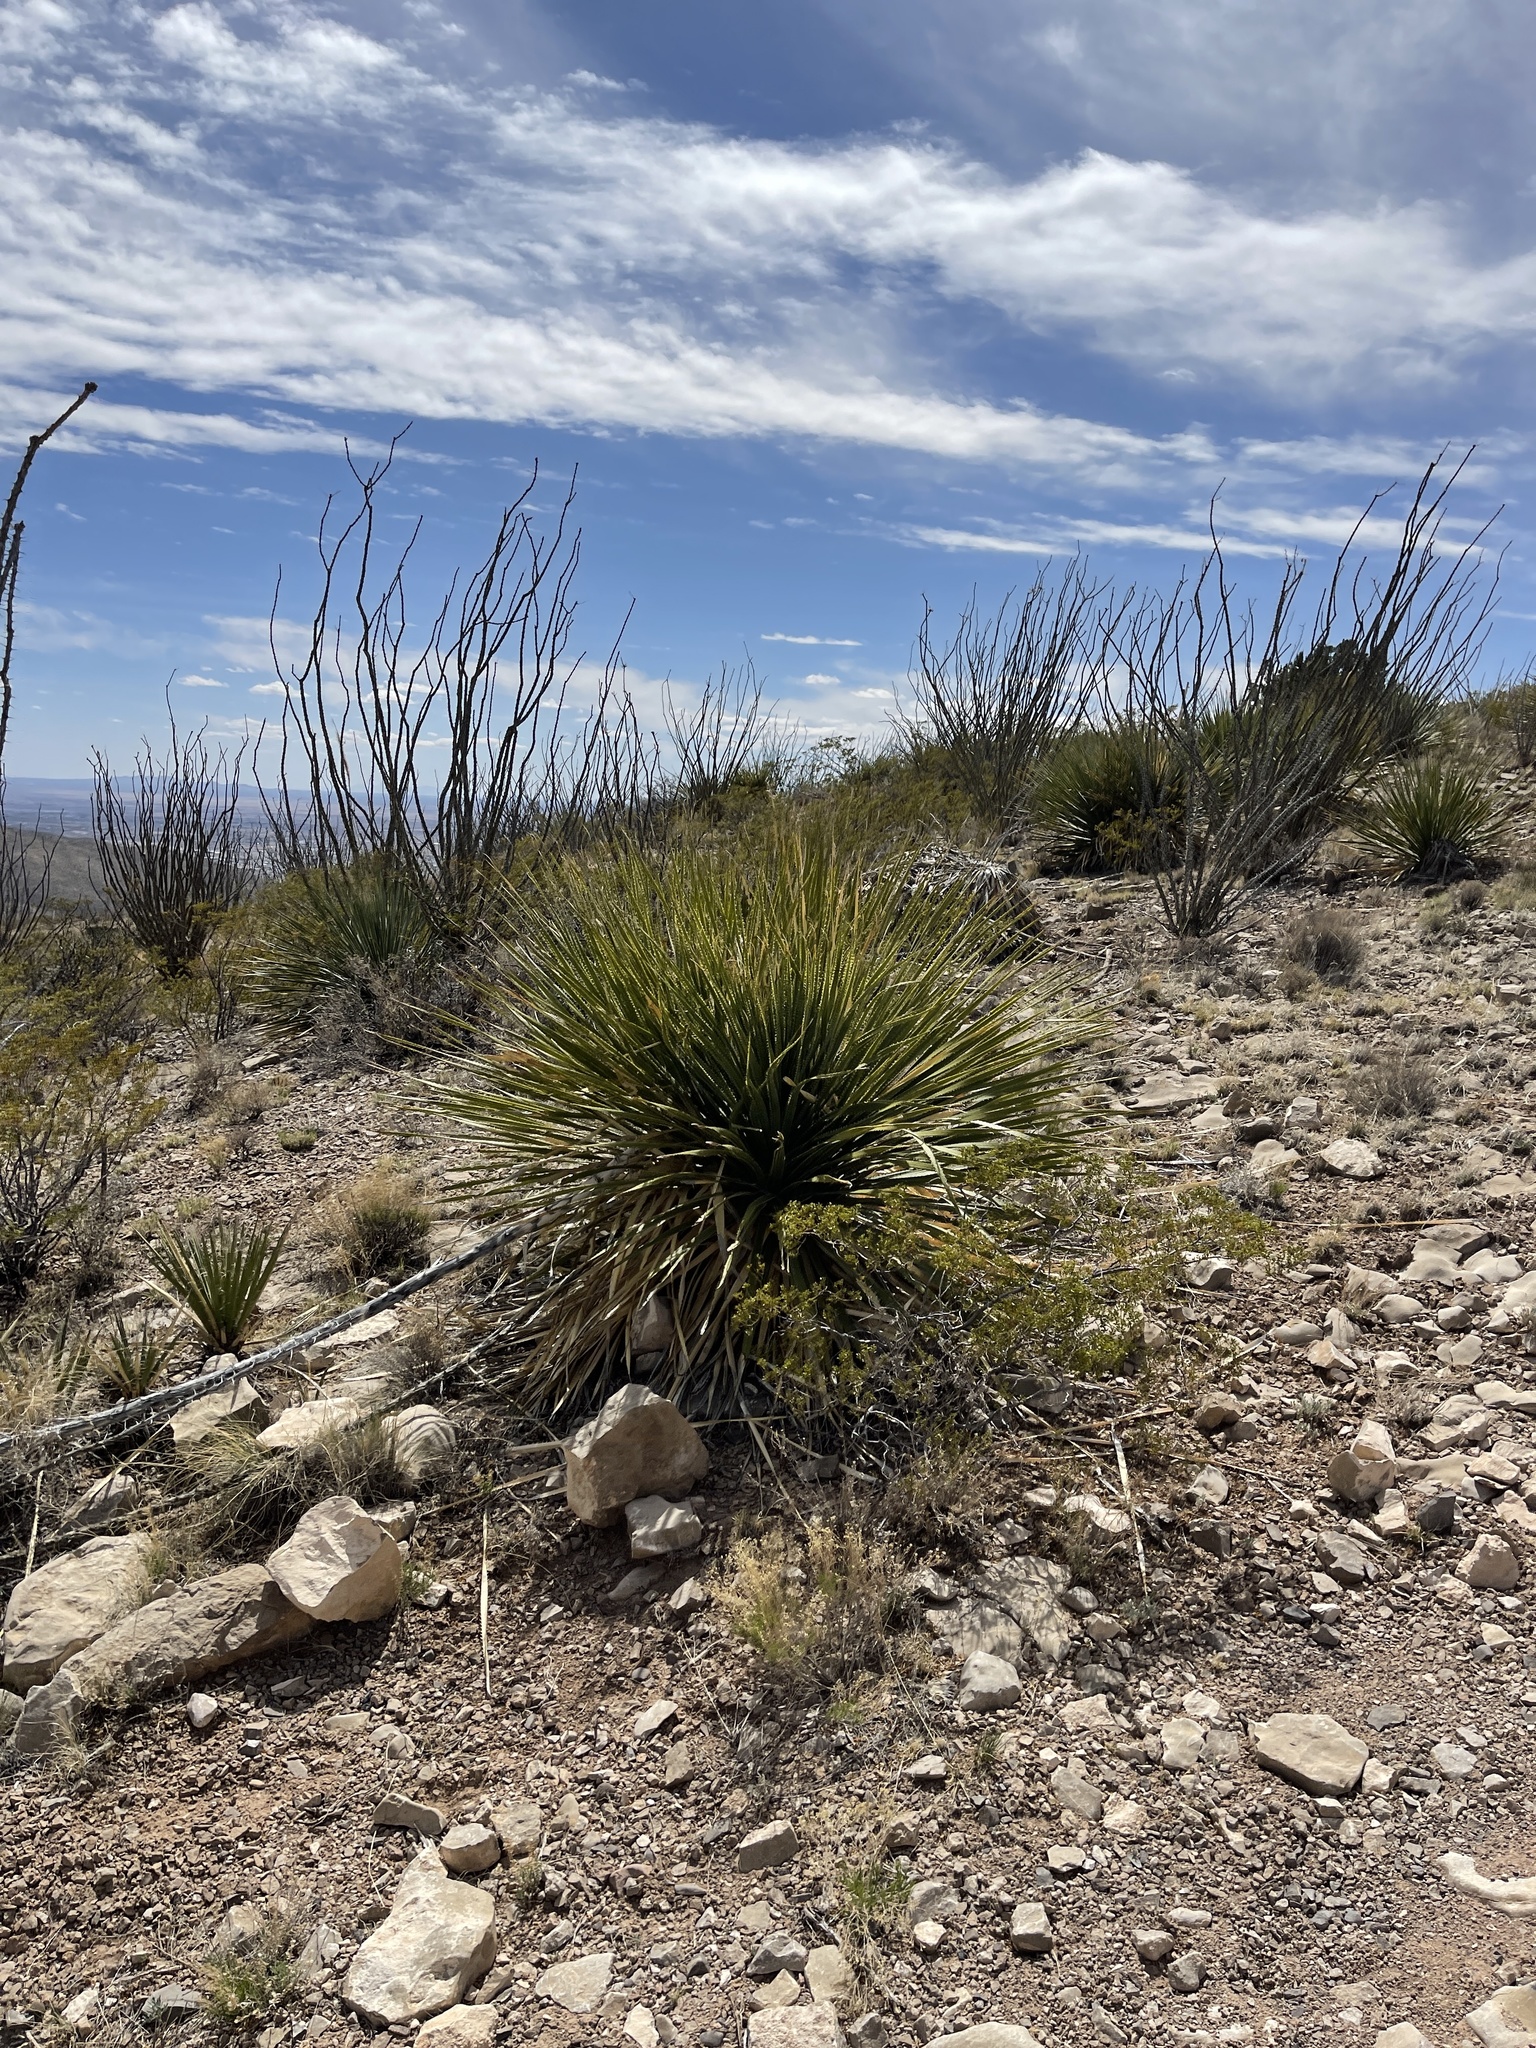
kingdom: Plantae
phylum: Tracheophyta
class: Liliopsida
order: Asparagales
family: Asparagaceae
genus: Dasylirion
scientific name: Dasylirion wheeleri
